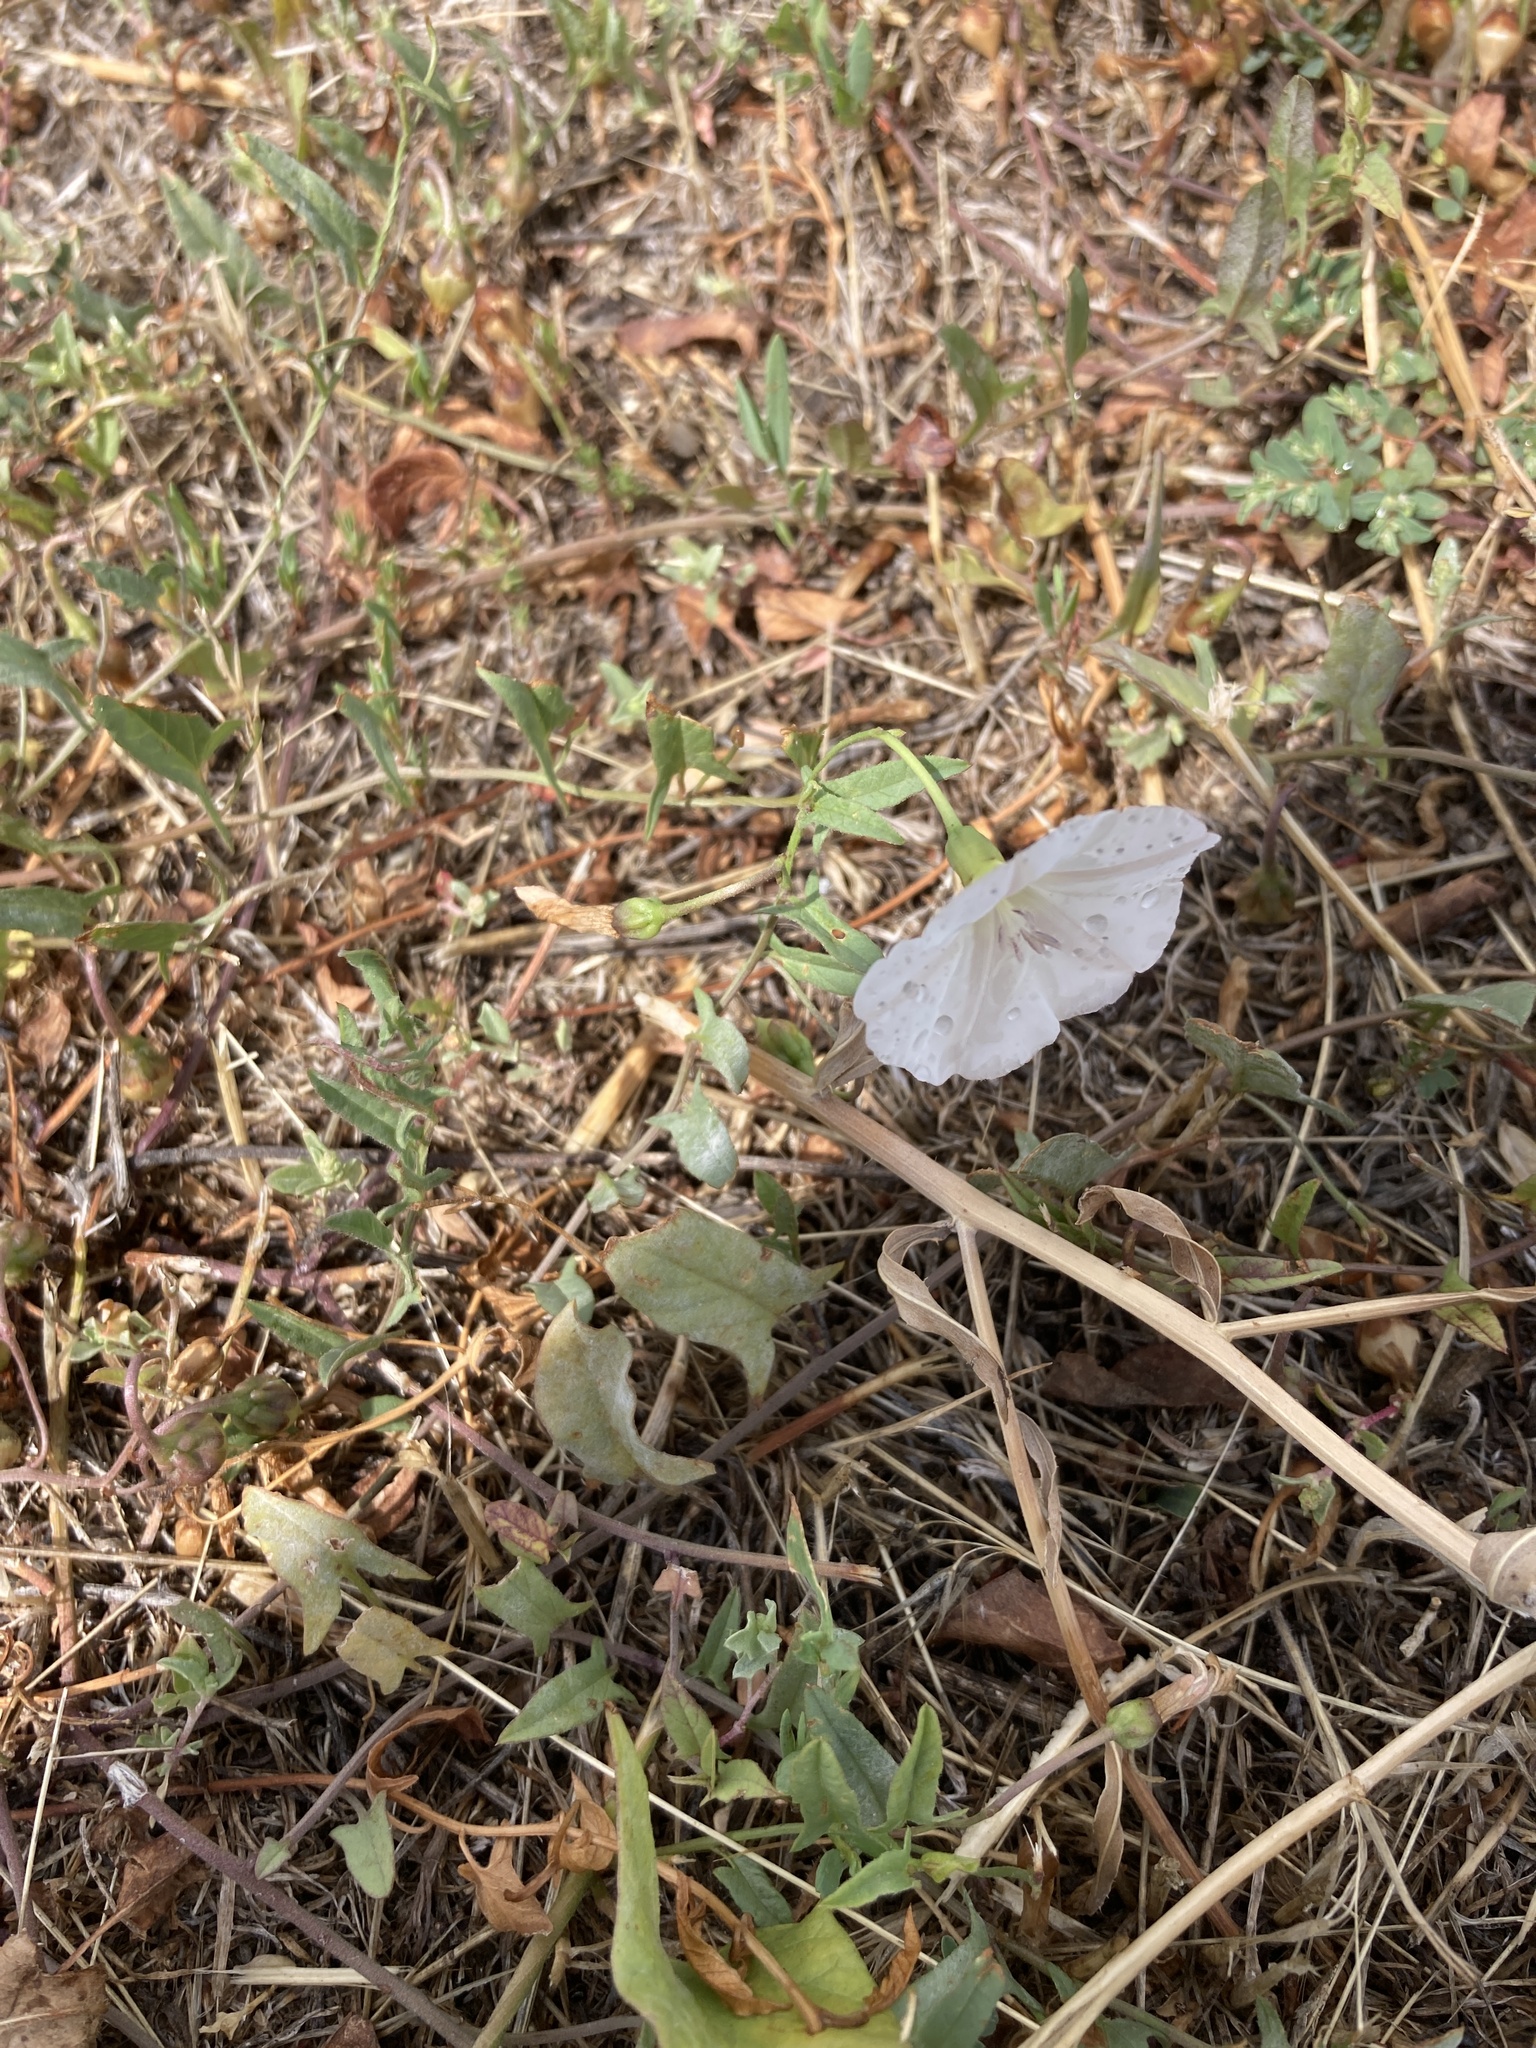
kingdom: Plantae
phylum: Tracheophyta
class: Magnoliopsida
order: Solanales
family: Convolvulaceae
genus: Convolvulus
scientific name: Convolvulus arvensis
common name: Field bindweed
